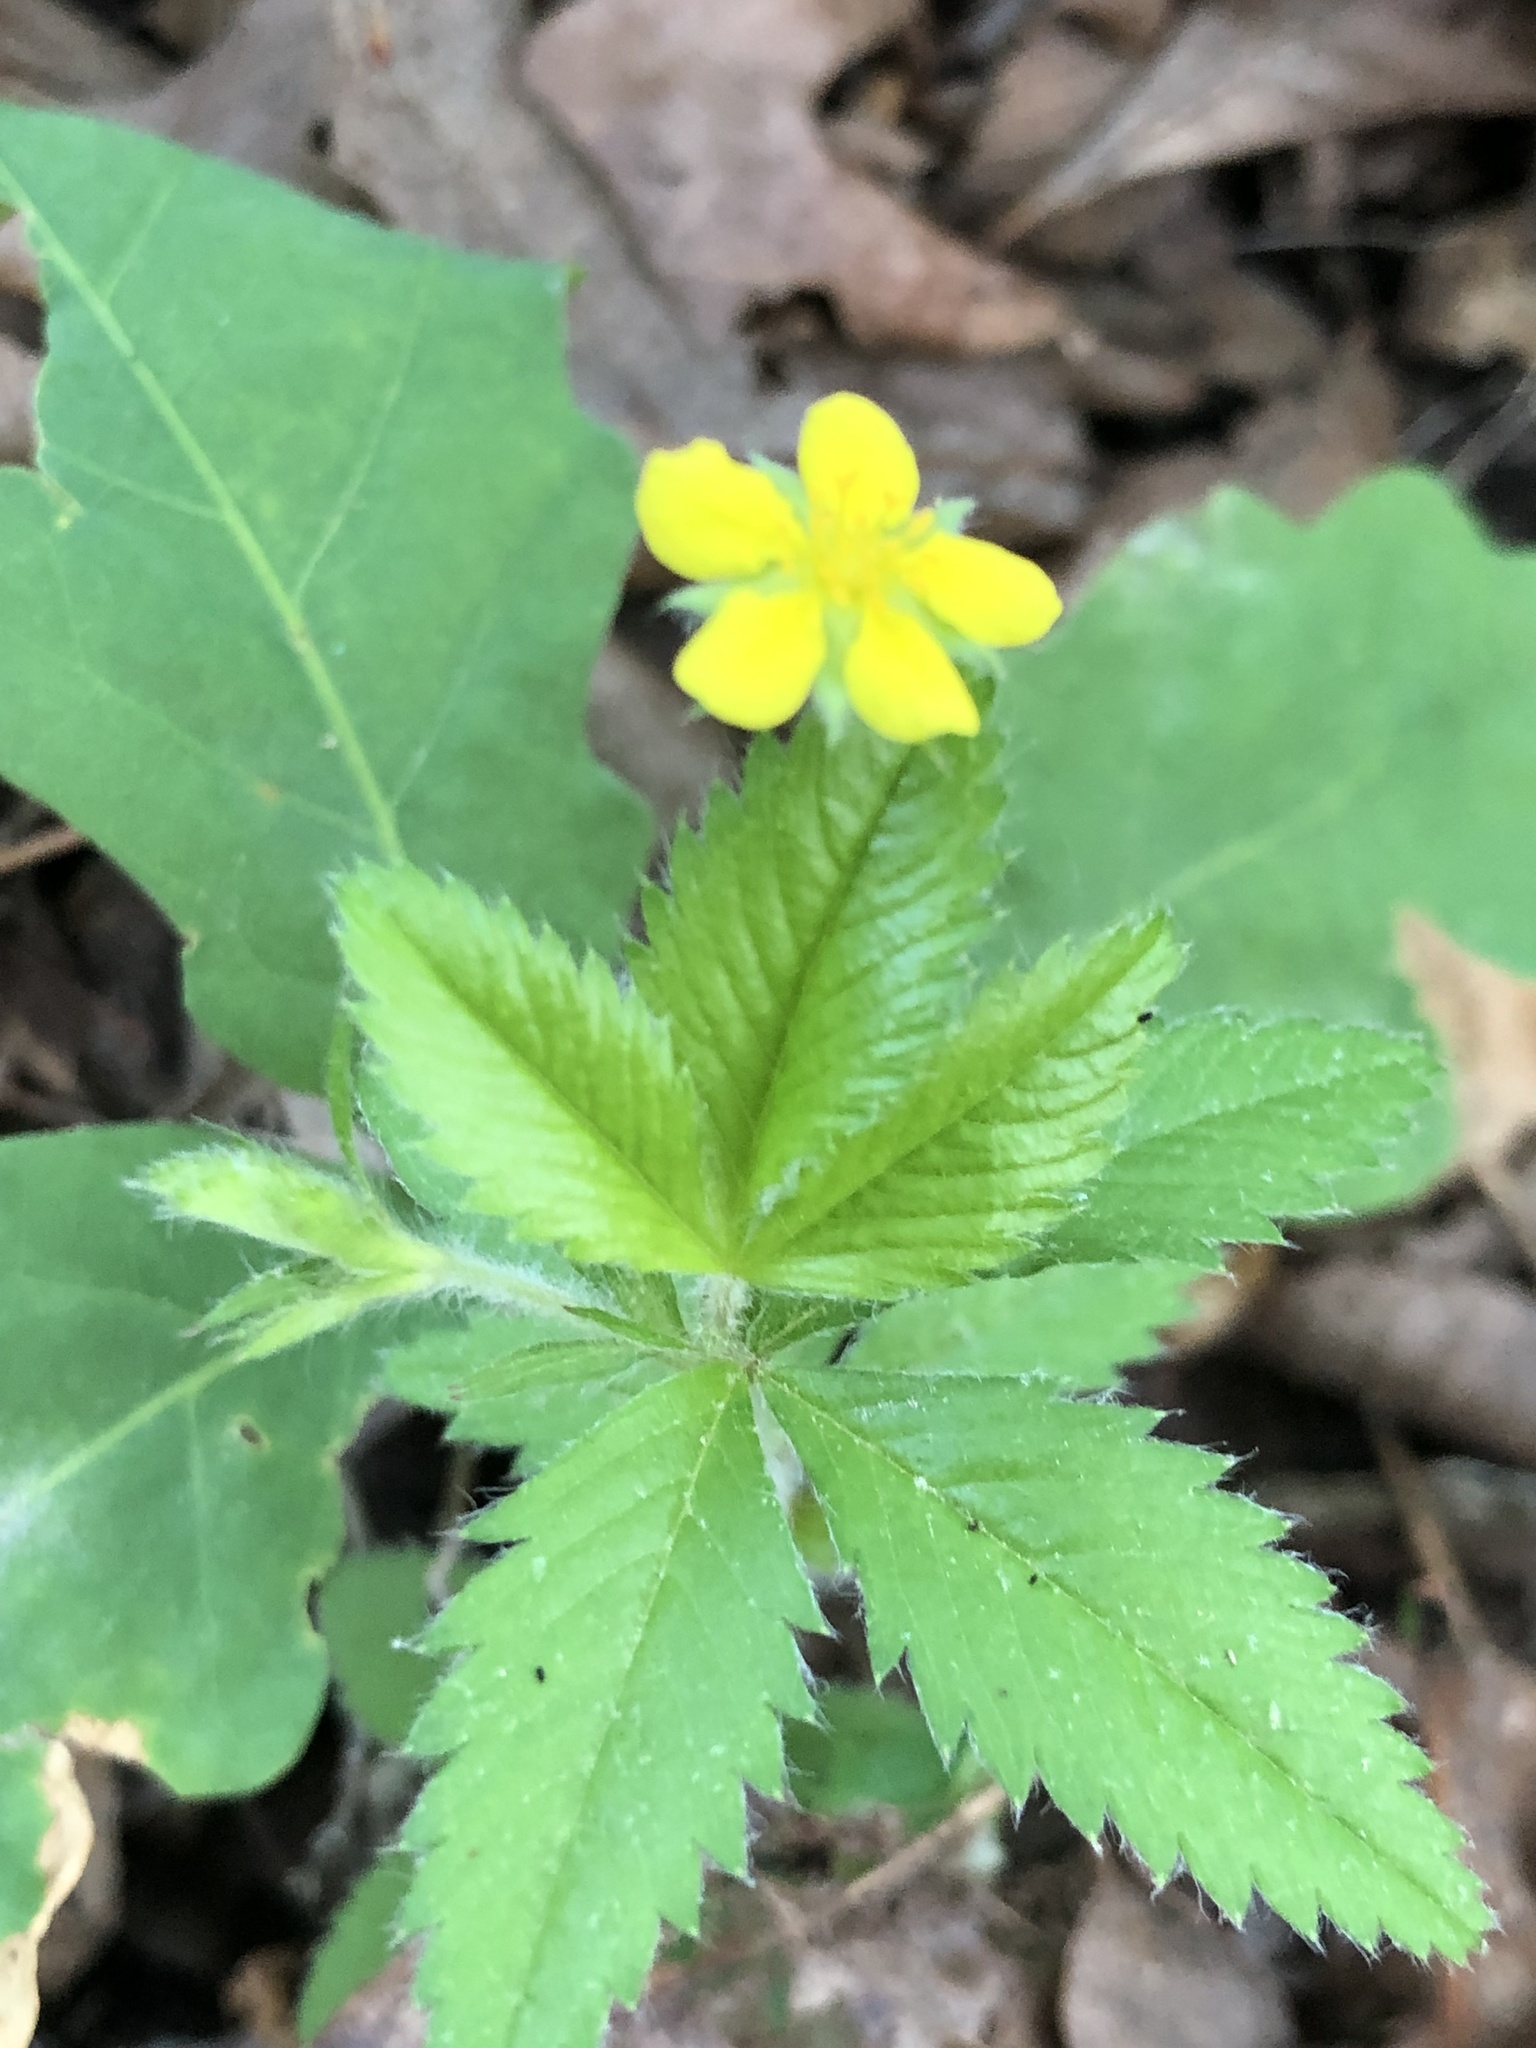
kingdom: Plantae
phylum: Tracheophyta
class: Magnoliopsida
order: Rosales
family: Rosaceae
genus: Potentilla
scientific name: Potentilla simplex
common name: Old field cinquefoil
